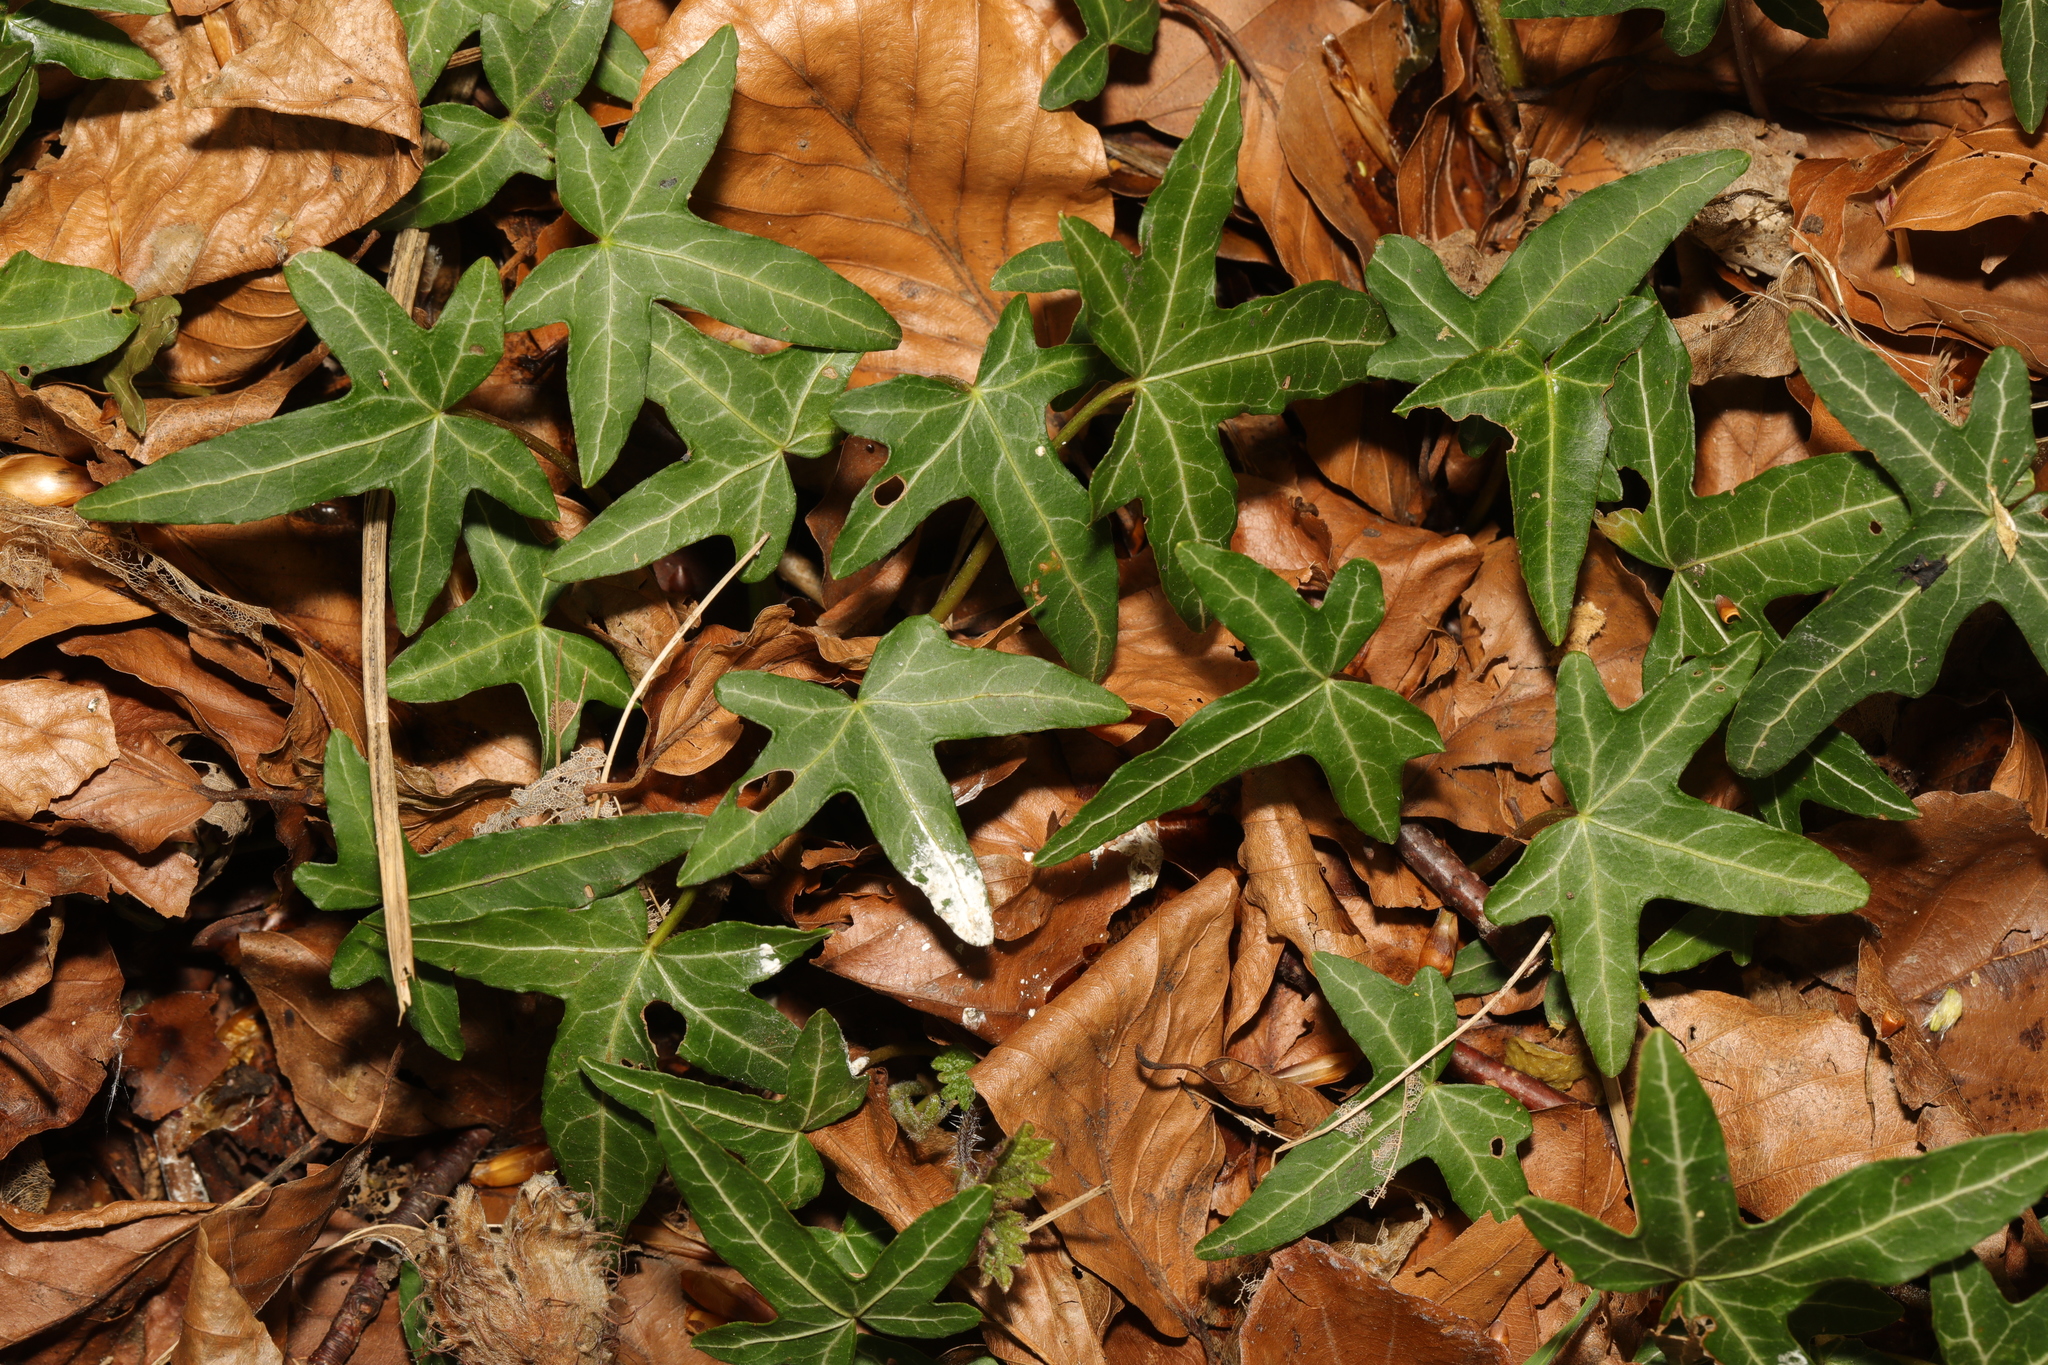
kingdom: Plantae
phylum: Tracheophyta
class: Magnoliopsida
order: Apiales
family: Araliaceae
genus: Hedera
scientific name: Hedera helix
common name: Ivy
